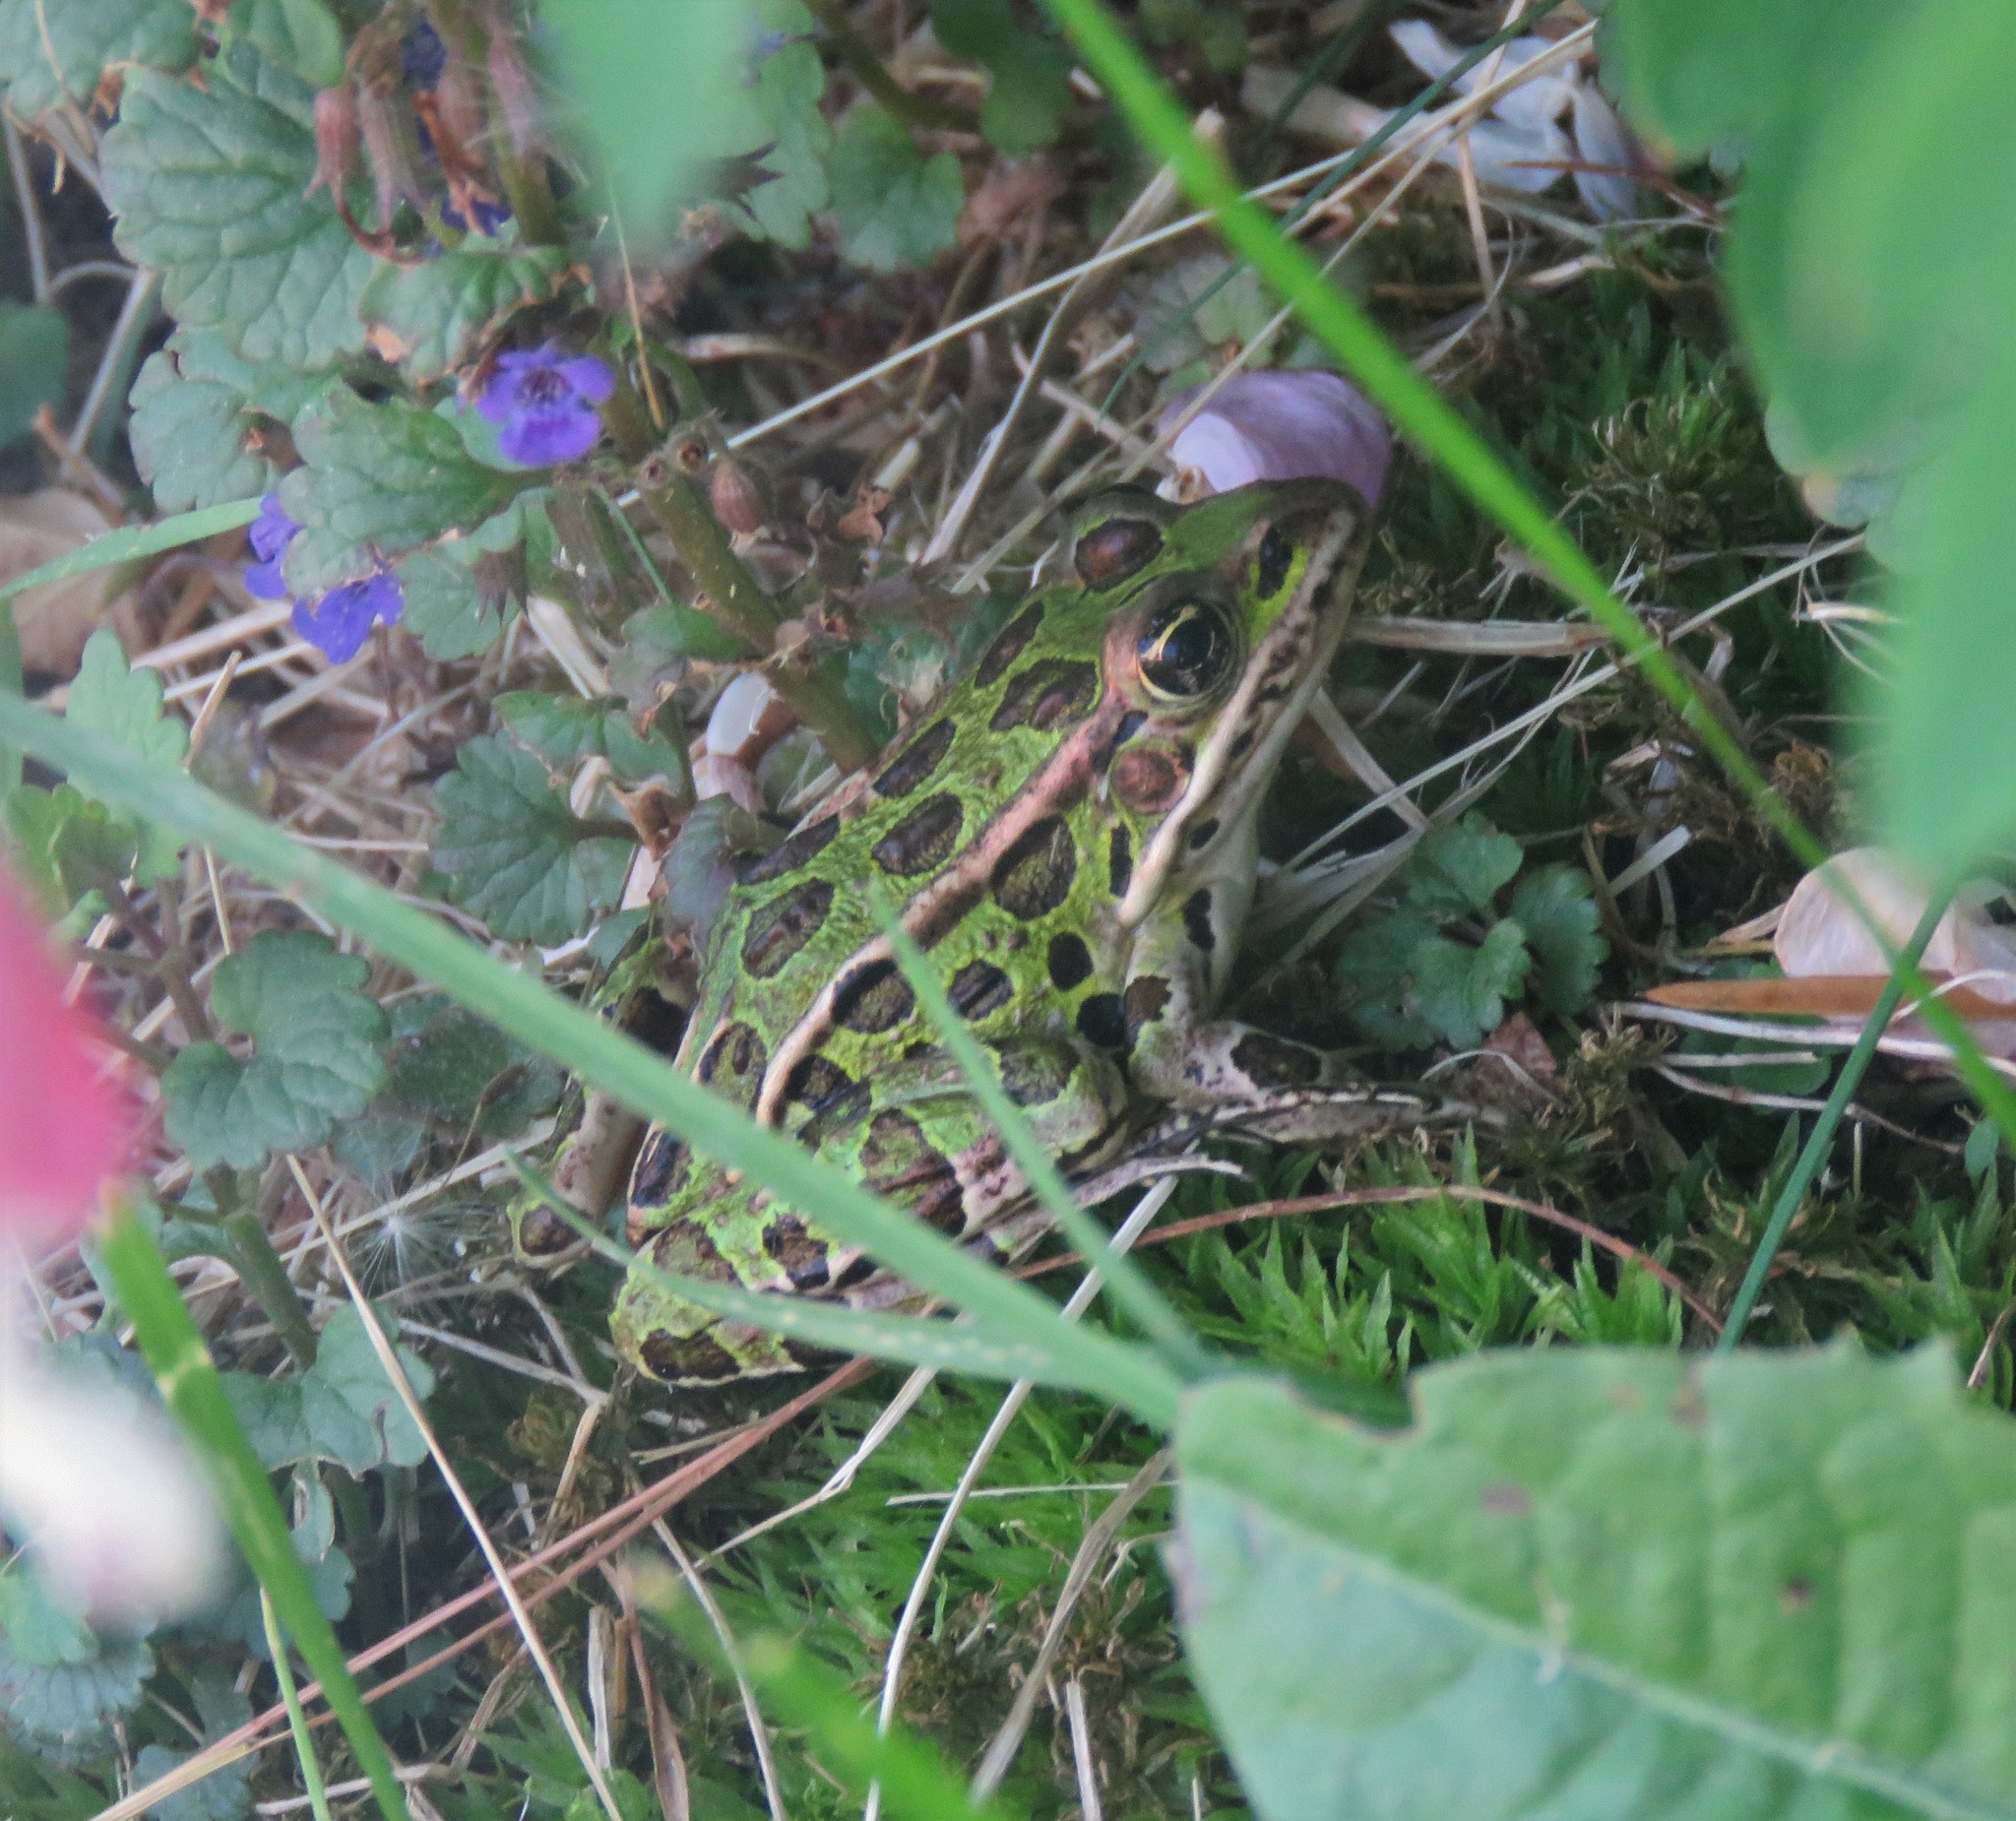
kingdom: Animalia
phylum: Chordata
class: Amphibia
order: Anura
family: Ranidae
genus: Lithobates
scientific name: Lithobates pipiens
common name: Northern leopard frog
